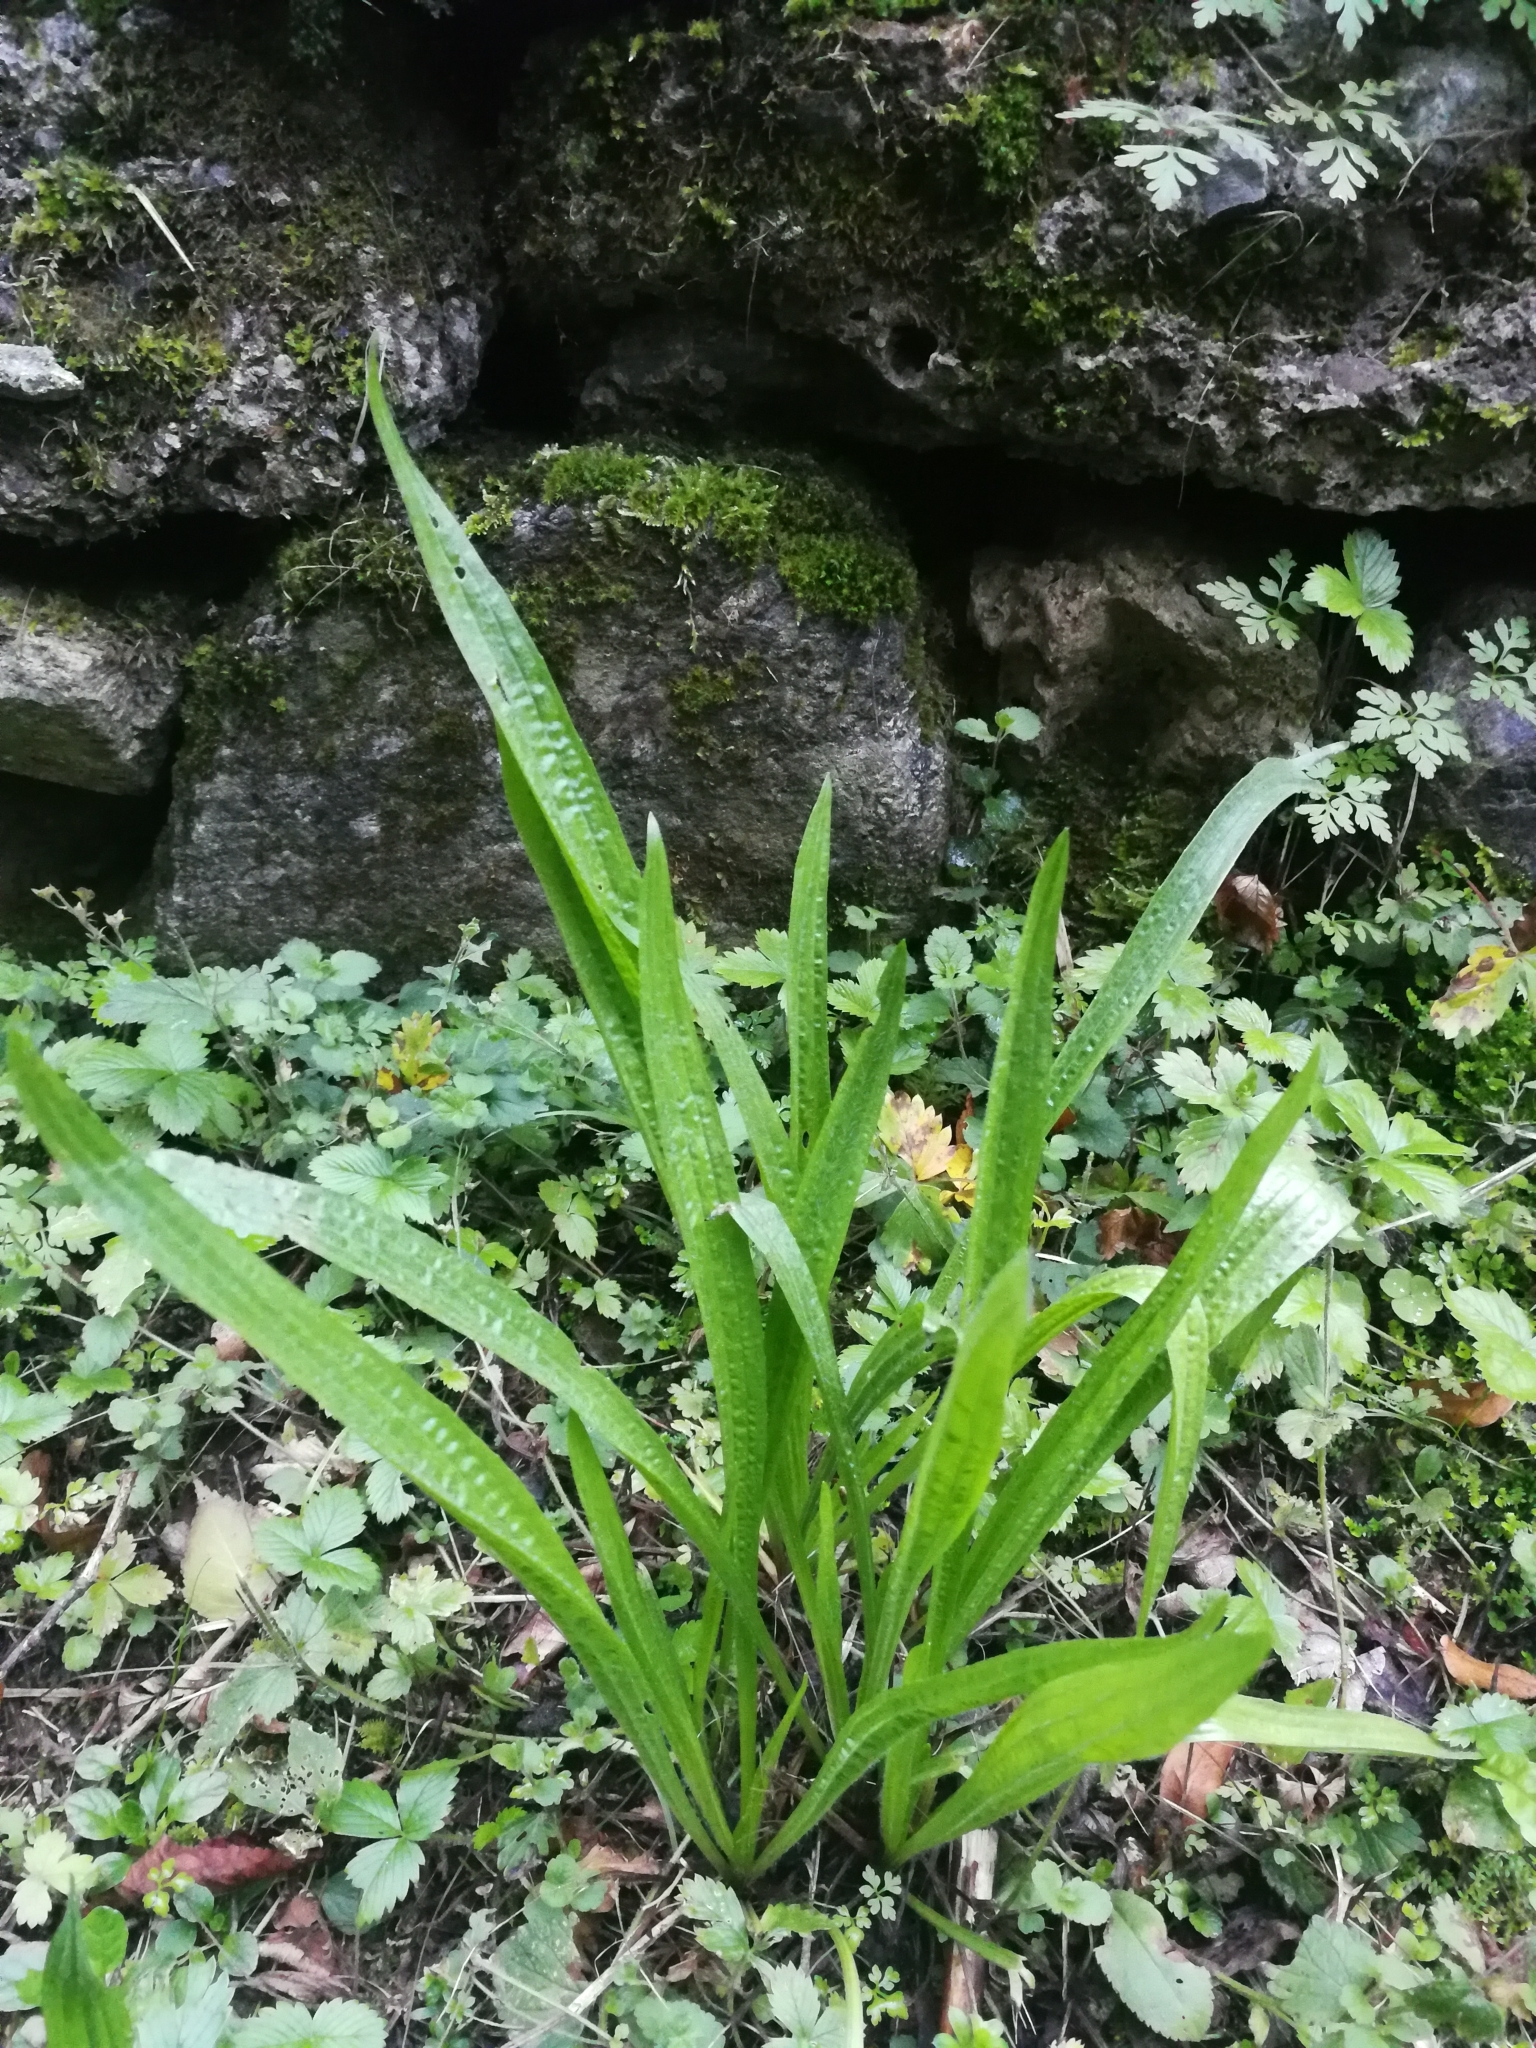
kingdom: Plantae
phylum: Tracheophyta
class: Magnoliopsida
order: Lamiales
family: Plantaginaceae
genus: Plantago
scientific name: Plantago lanceolata
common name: Ribwort plantain
